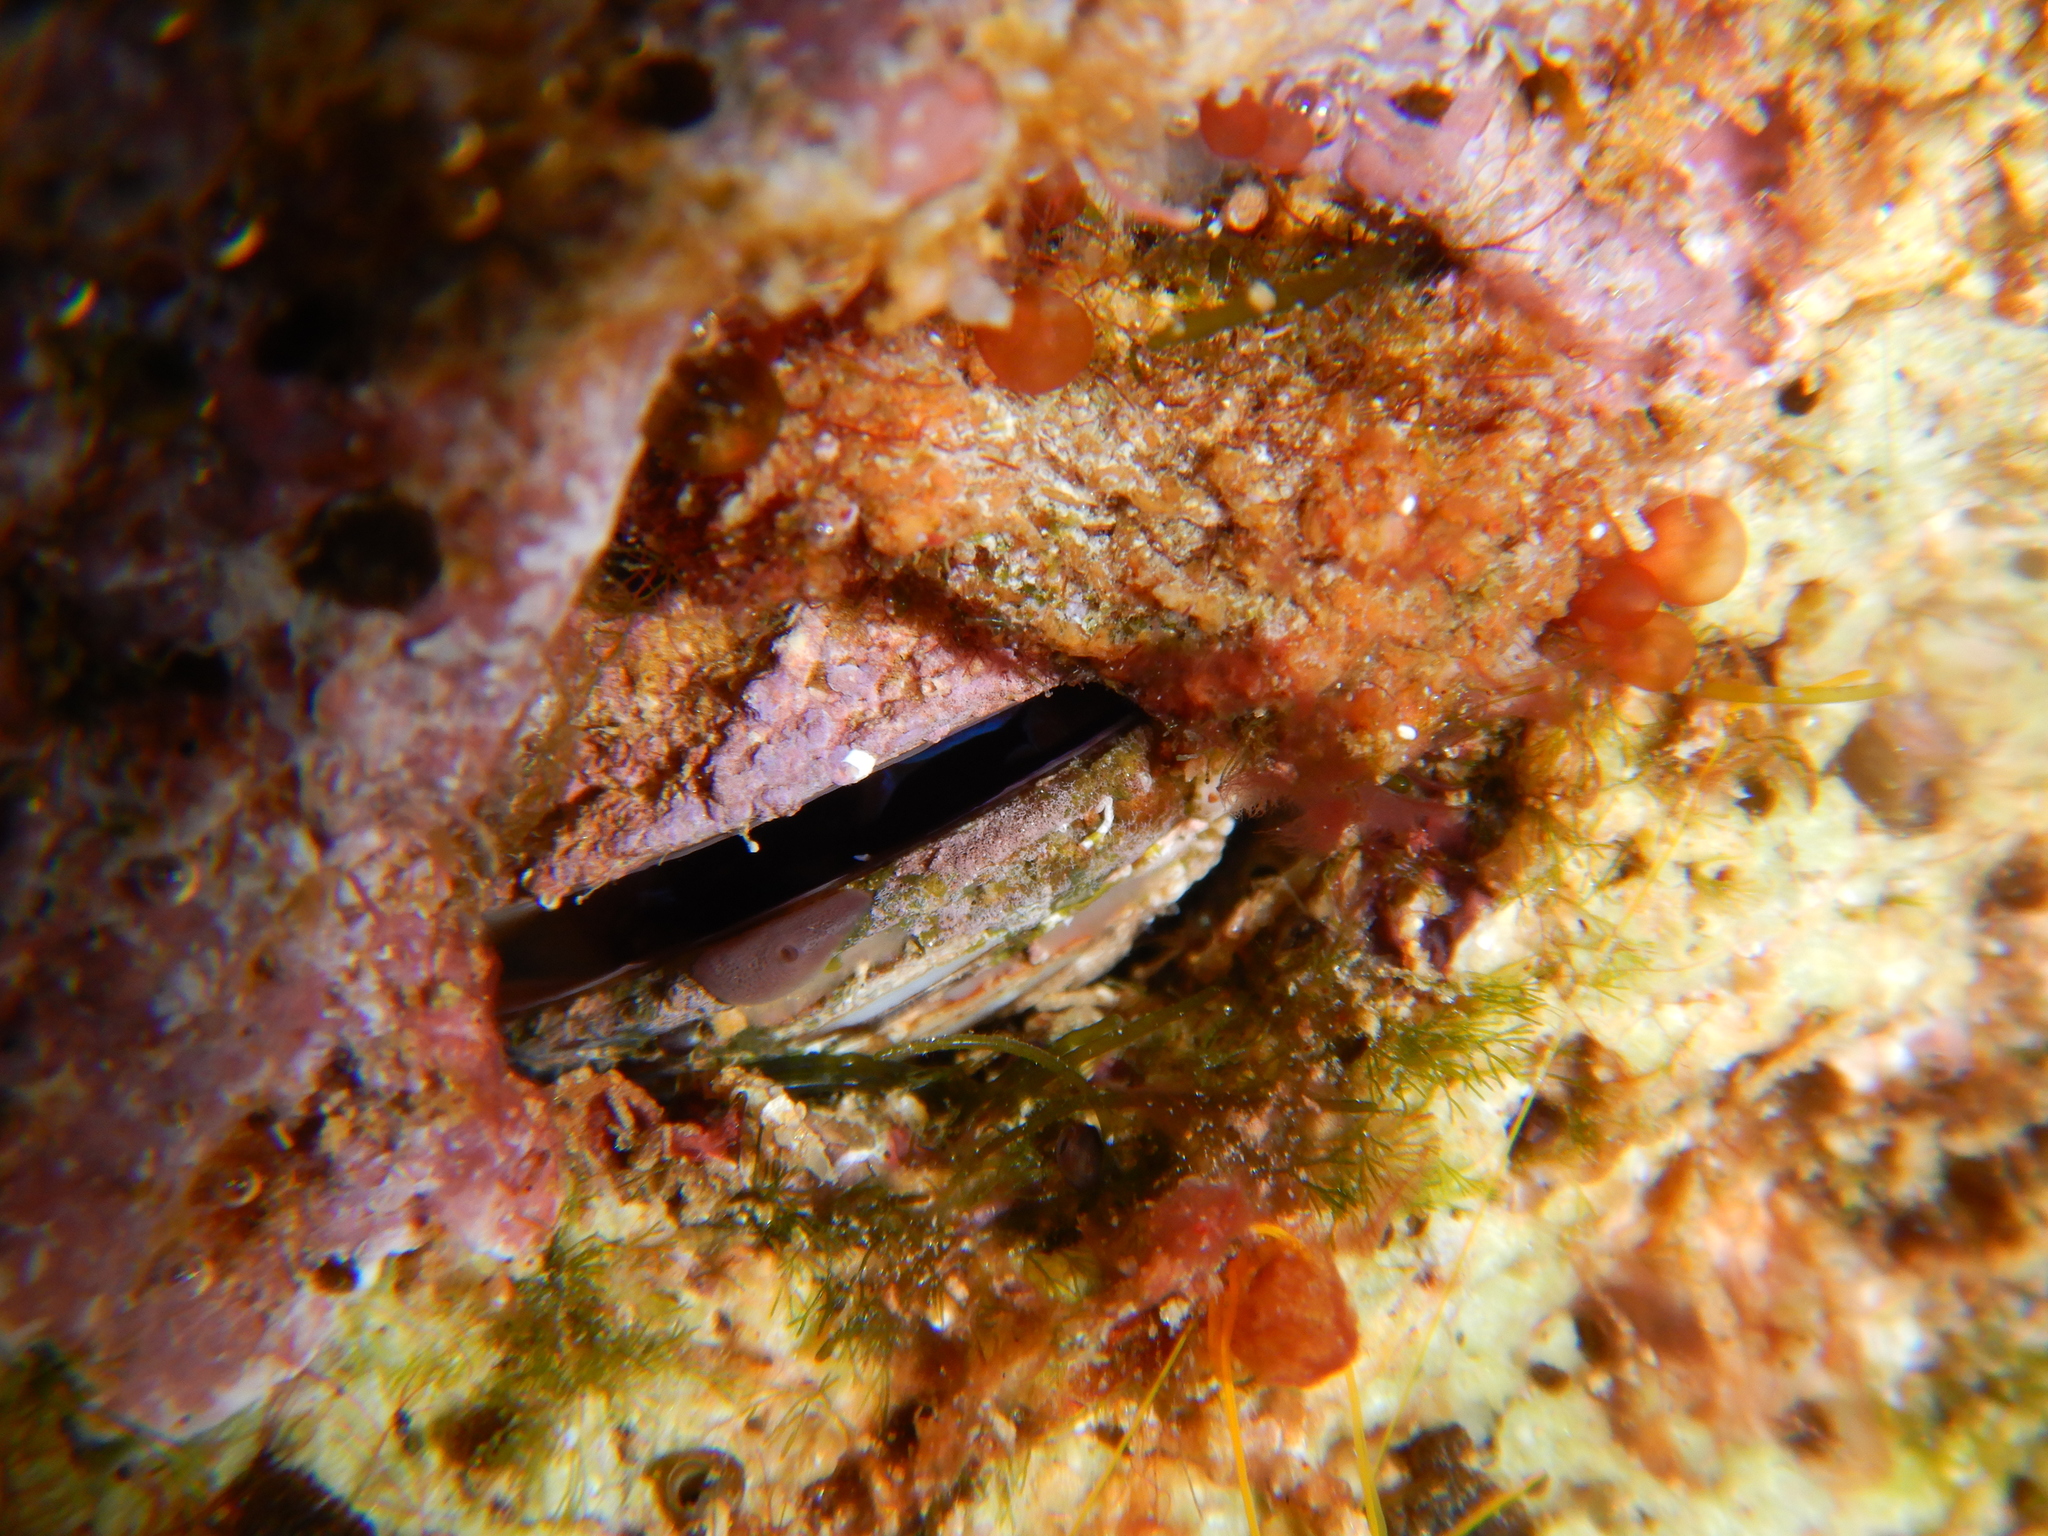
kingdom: Animalia
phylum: Mollusca
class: Bivalvia
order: Mytilida
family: Mytilidae
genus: Lithophaga
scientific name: Lithophaga lithophaga
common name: European date mussel
